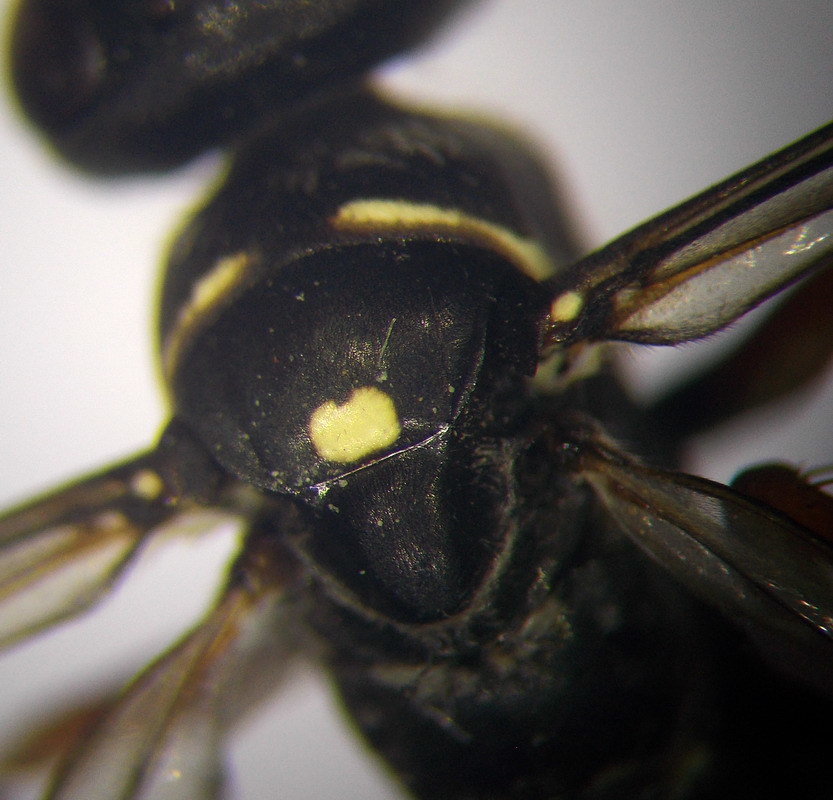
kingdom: Animalia
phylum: Arthropoda
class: Insecta
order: Hymenoptera
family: Pompilidae
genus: Episyron
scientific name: Episyron albonotatum
